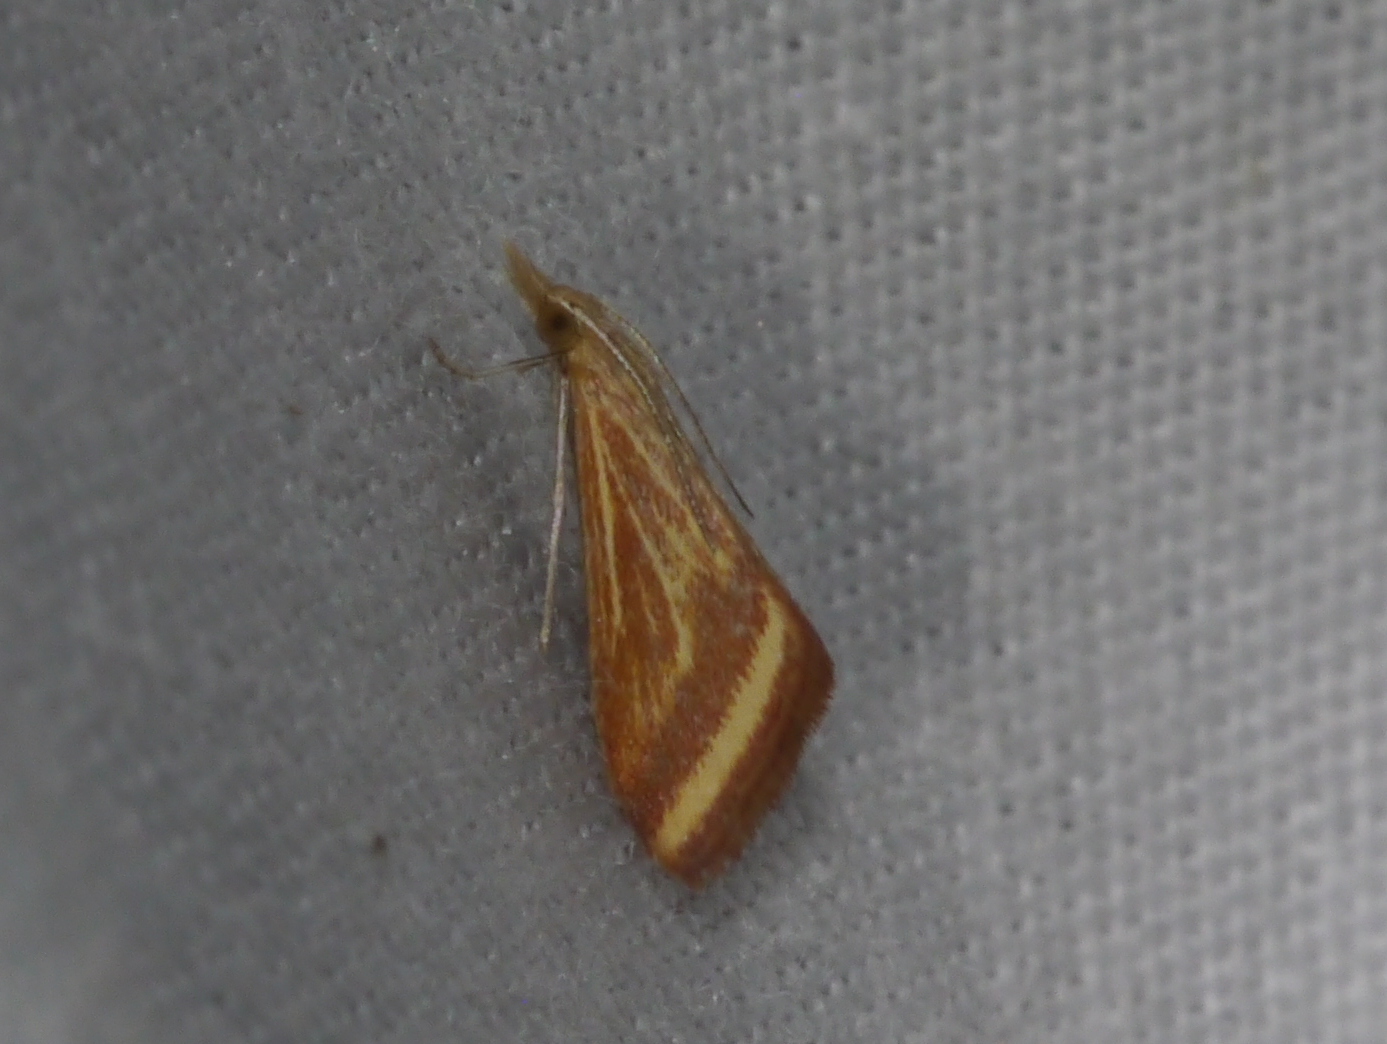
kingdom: Animalia
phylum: Arthropoda
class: Insecta
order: Lepidoptera
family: Crambidae
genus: Microtheoris
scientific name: Microtheoris ophionalis
